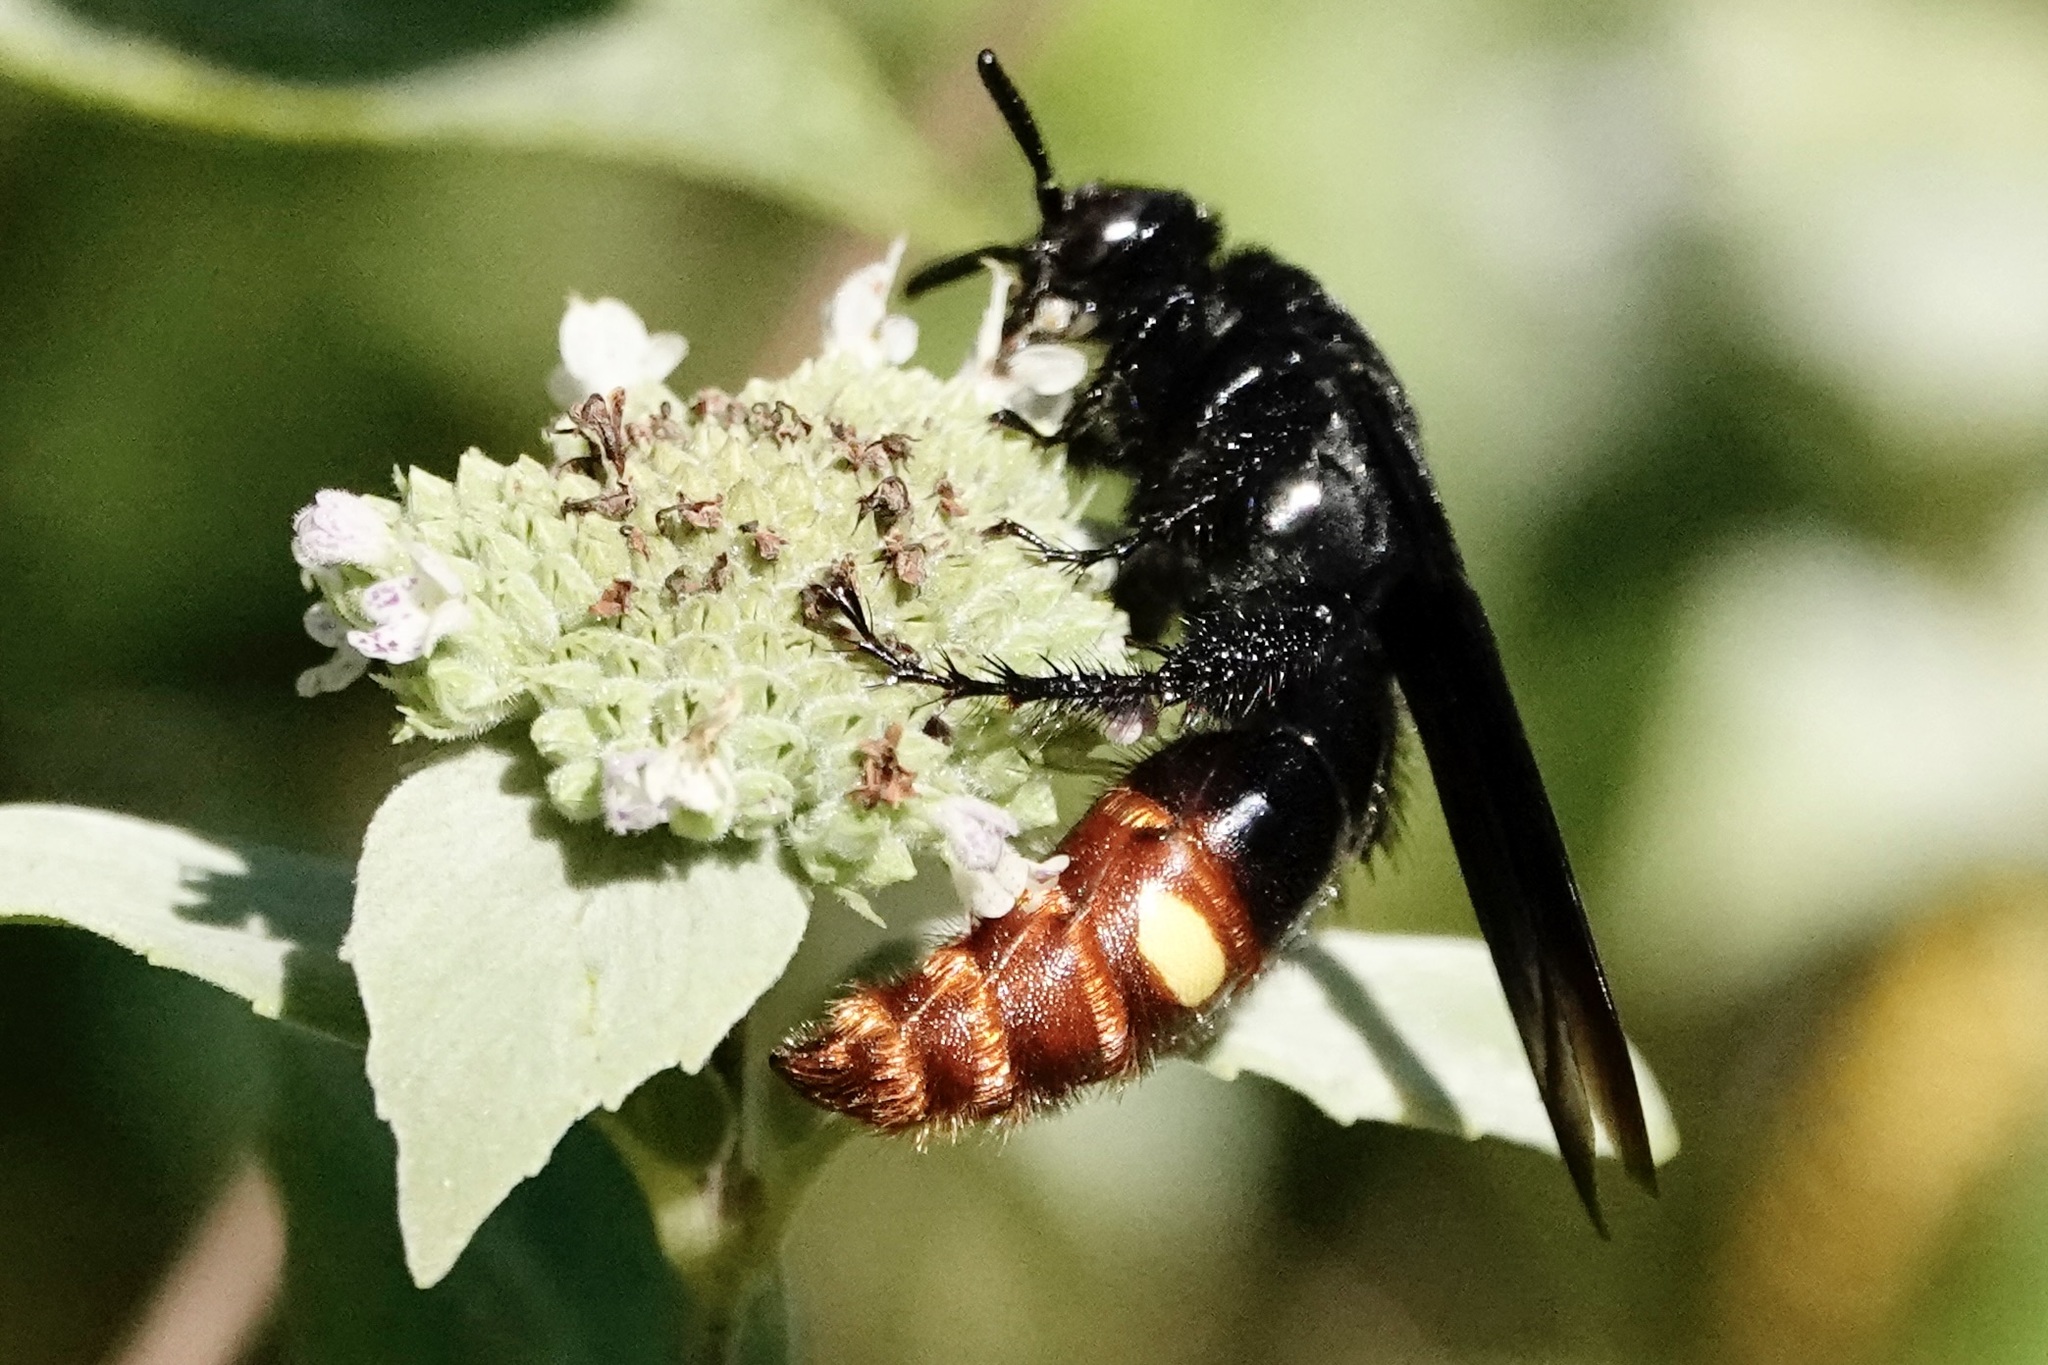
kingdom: Animalia
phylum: Arthropoda
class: Insecta
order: Hymenoptera
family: Scoliidae
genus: Scolia
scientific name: Scolia dubia
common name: Blue-winged scoliid wasp
